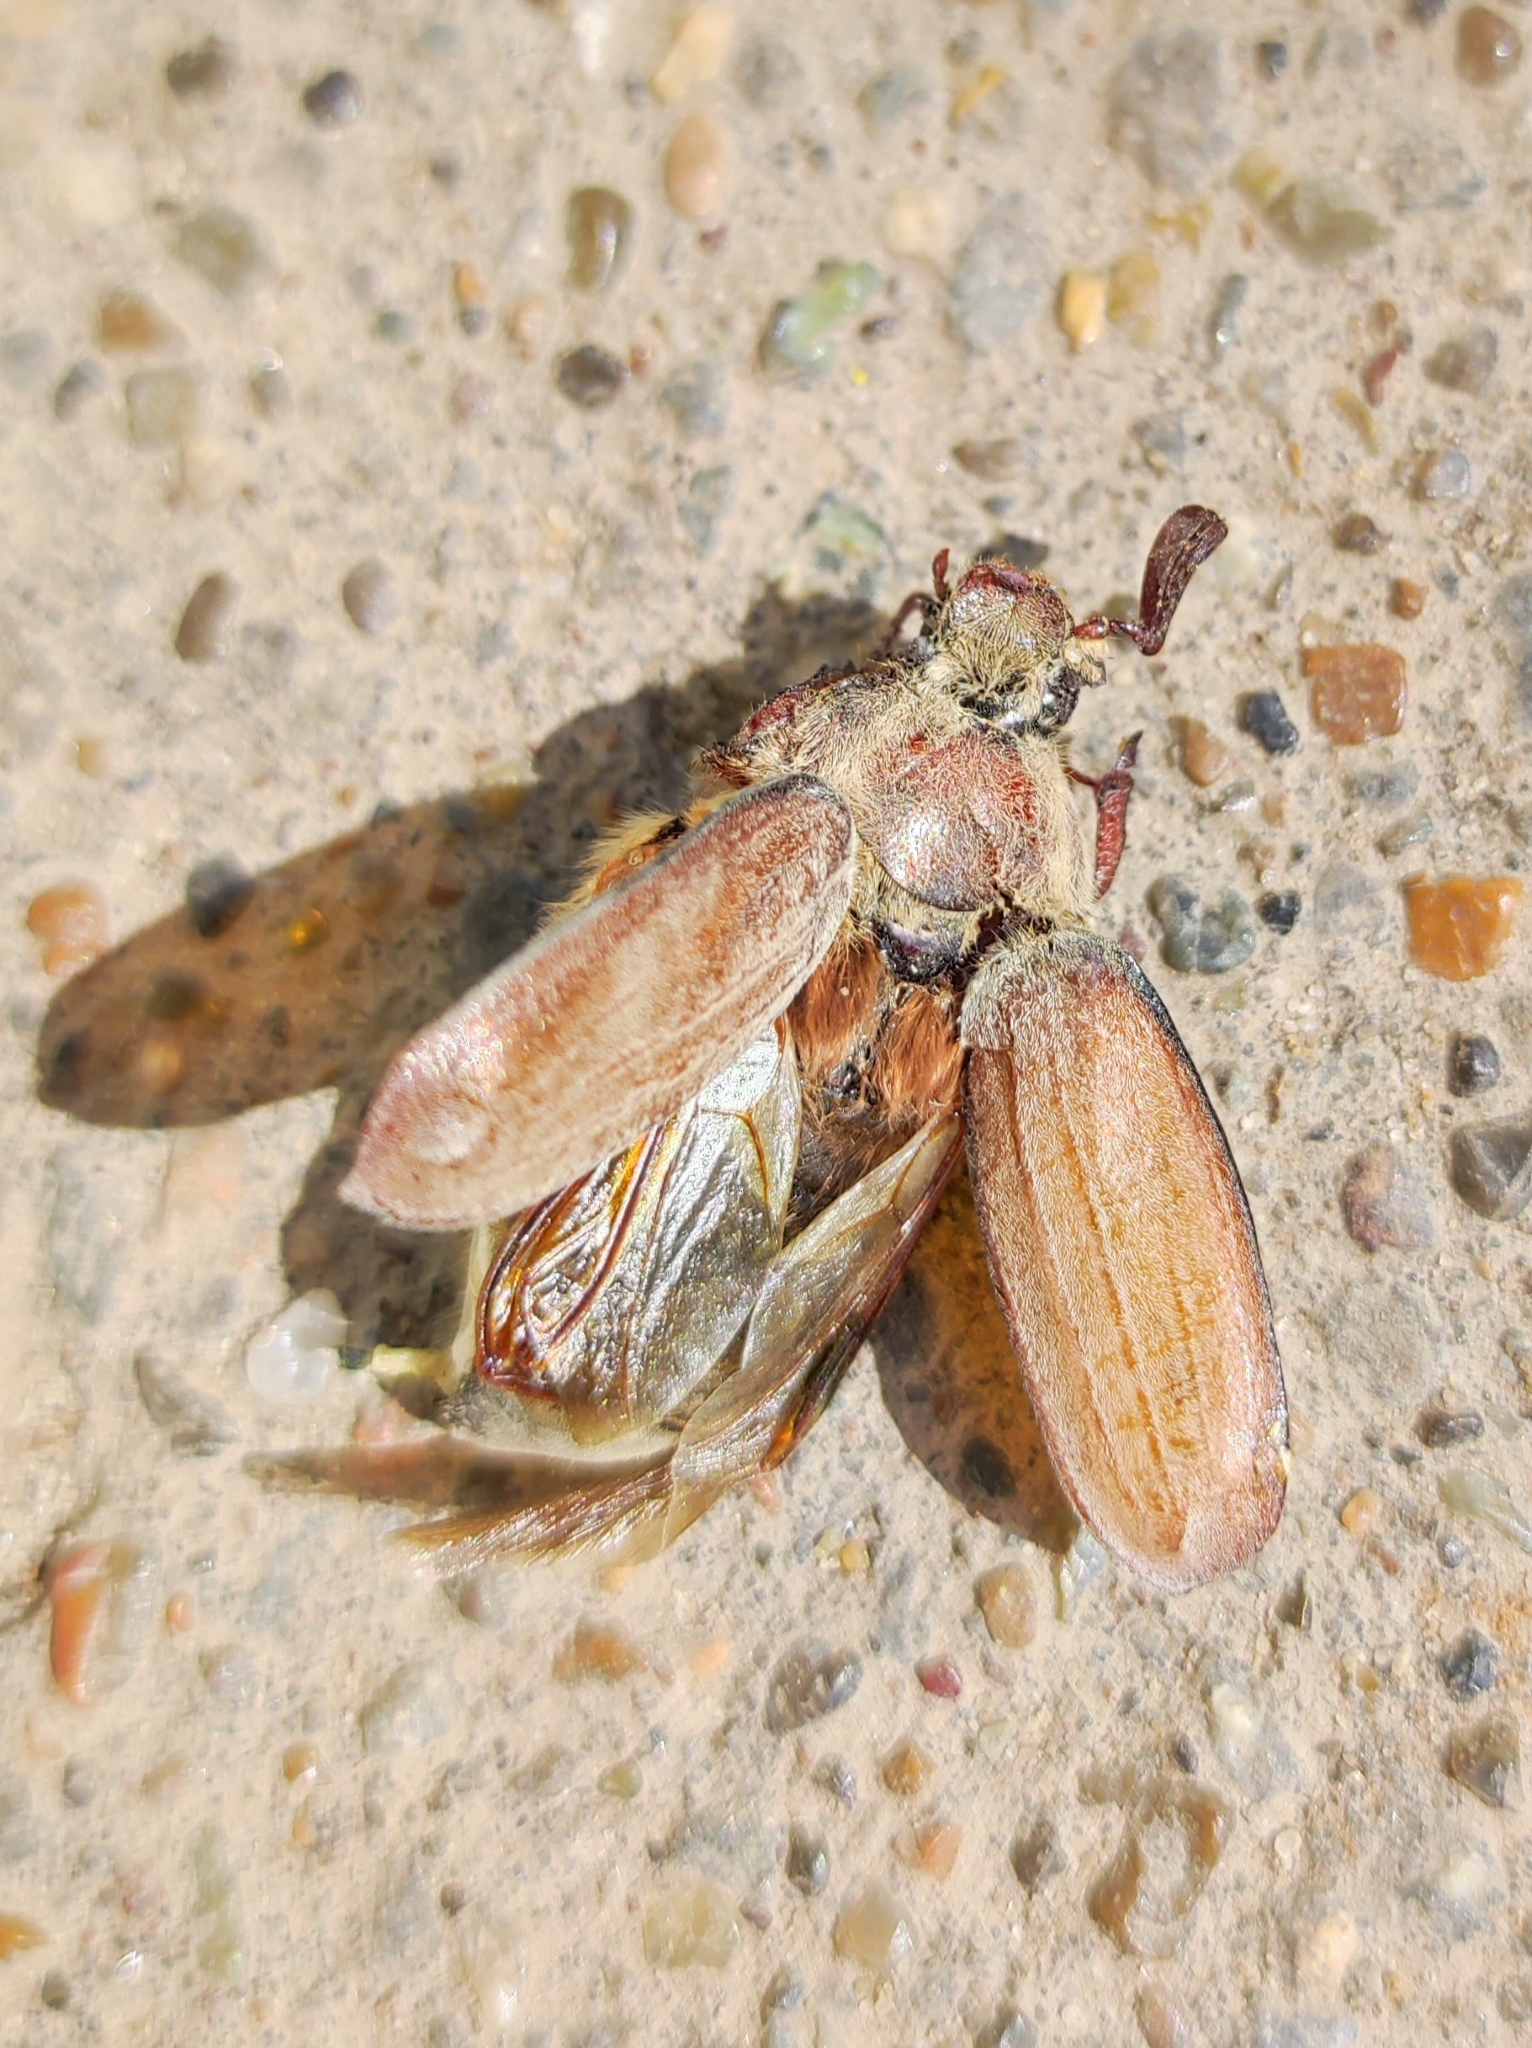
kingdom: Animalia
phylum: Arthropoda
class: Insecta
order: Coleoptera
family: Scarabaeidae
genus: Melolontha
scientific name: Melolontha hippocastani
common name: Chestnut cockchafer
